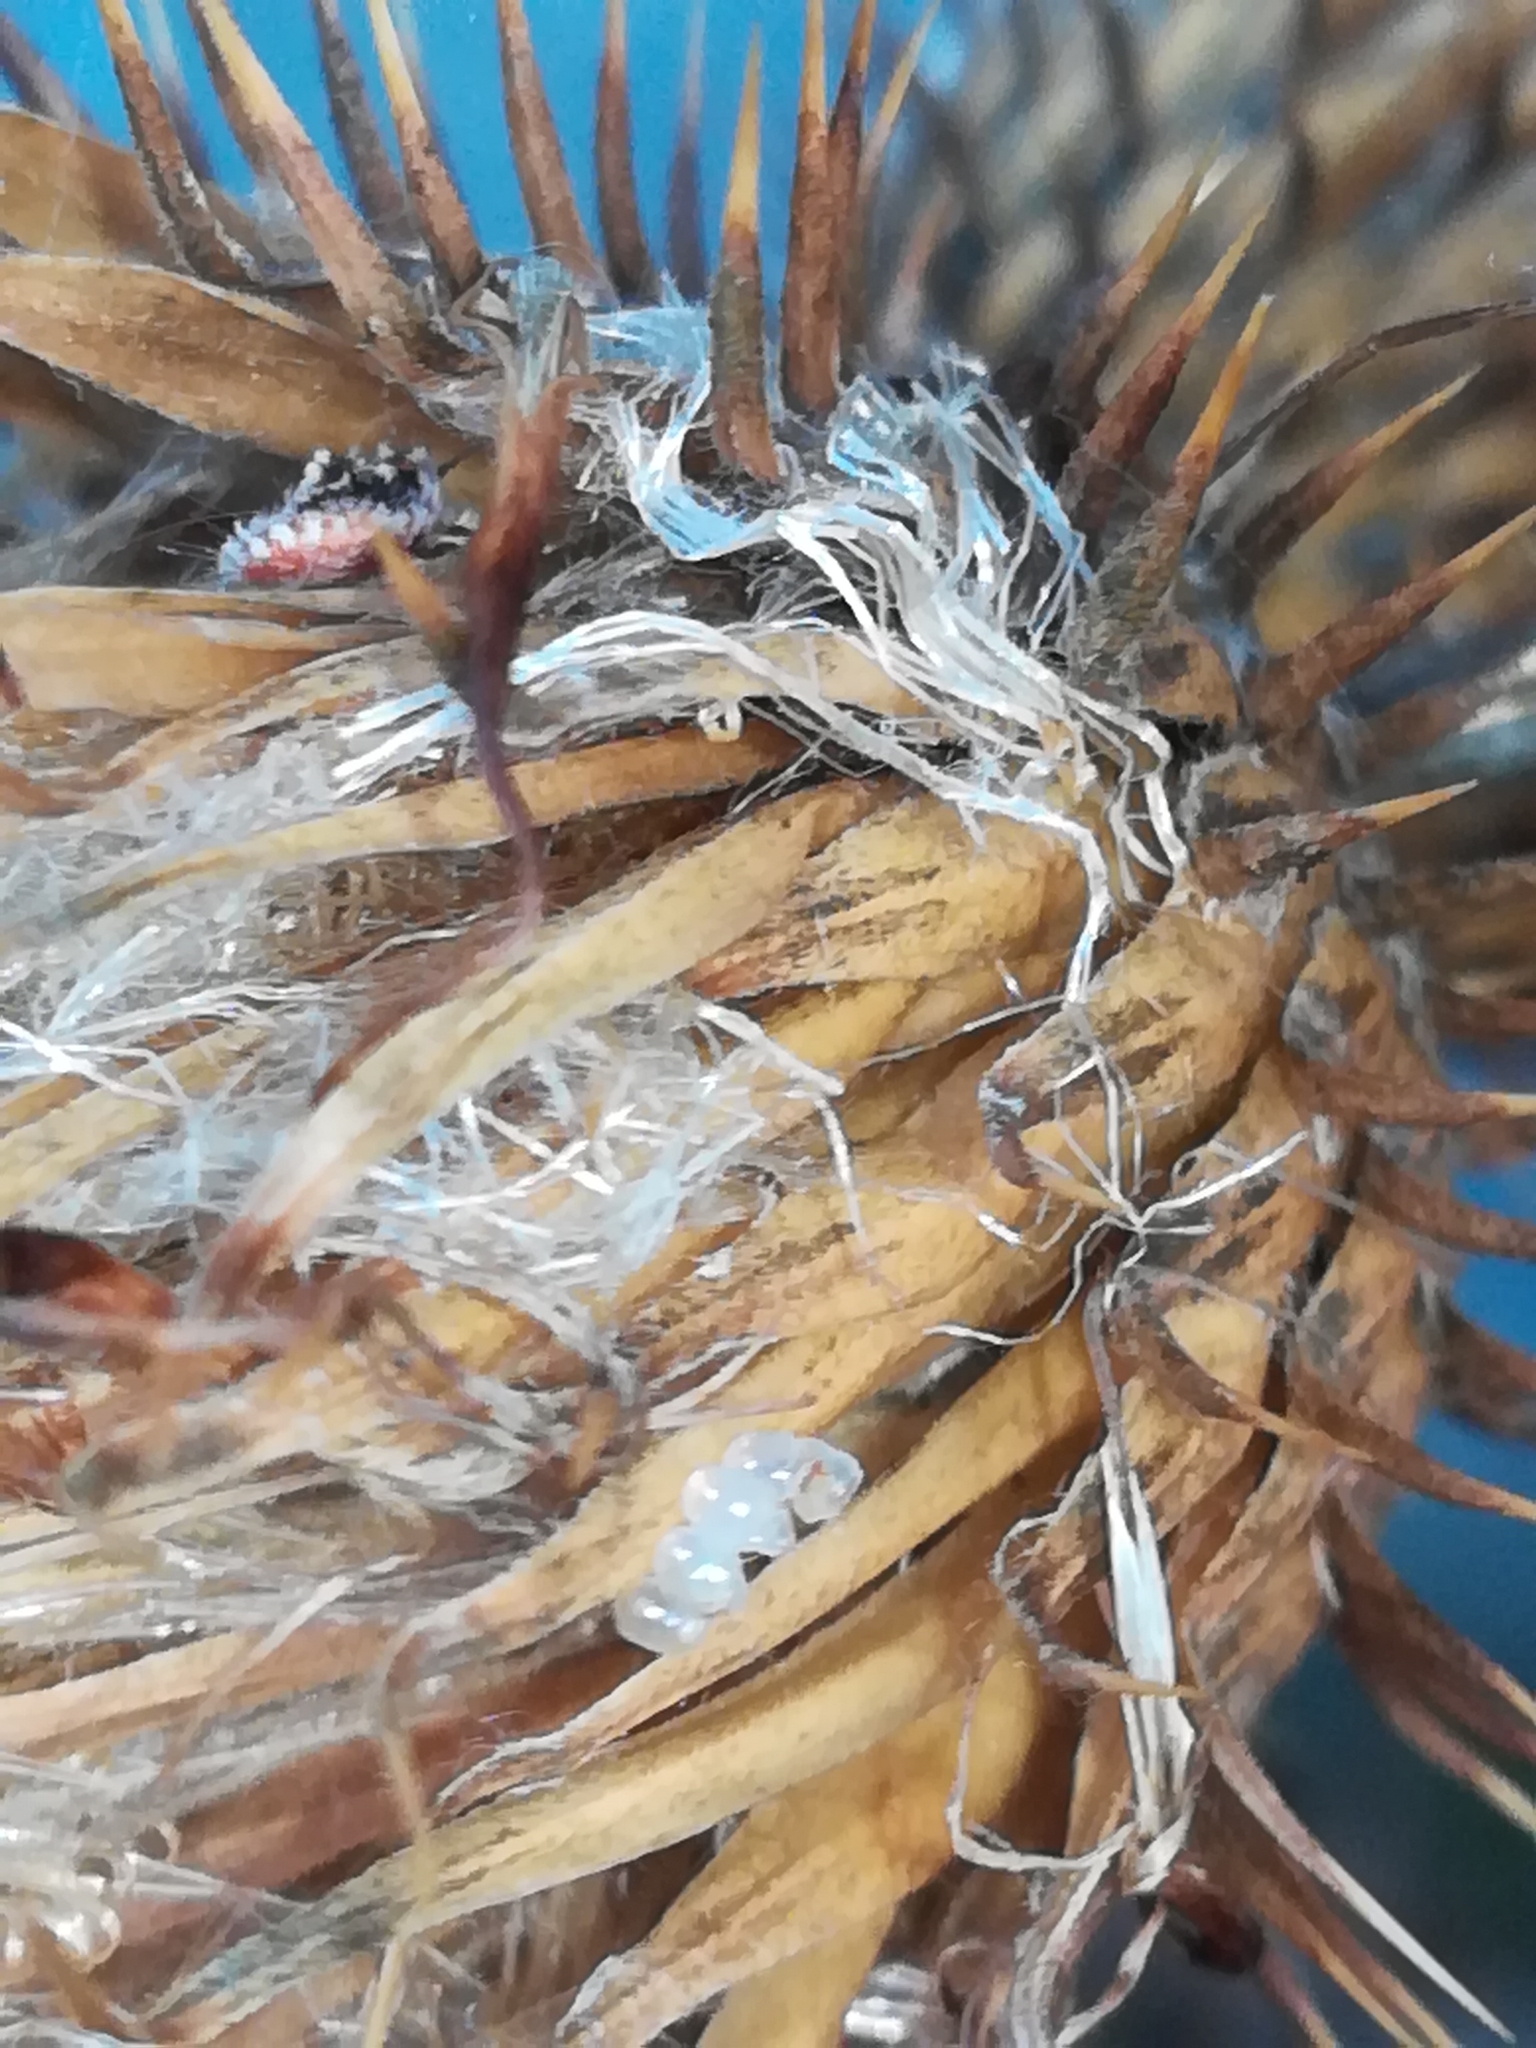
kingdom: Plantae
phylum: Tracheophyta
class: Magnoliopsida
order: Asterales
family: Asteraceae
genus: Cirsium
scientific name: Cirsium vulgare
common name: Bull thistle
